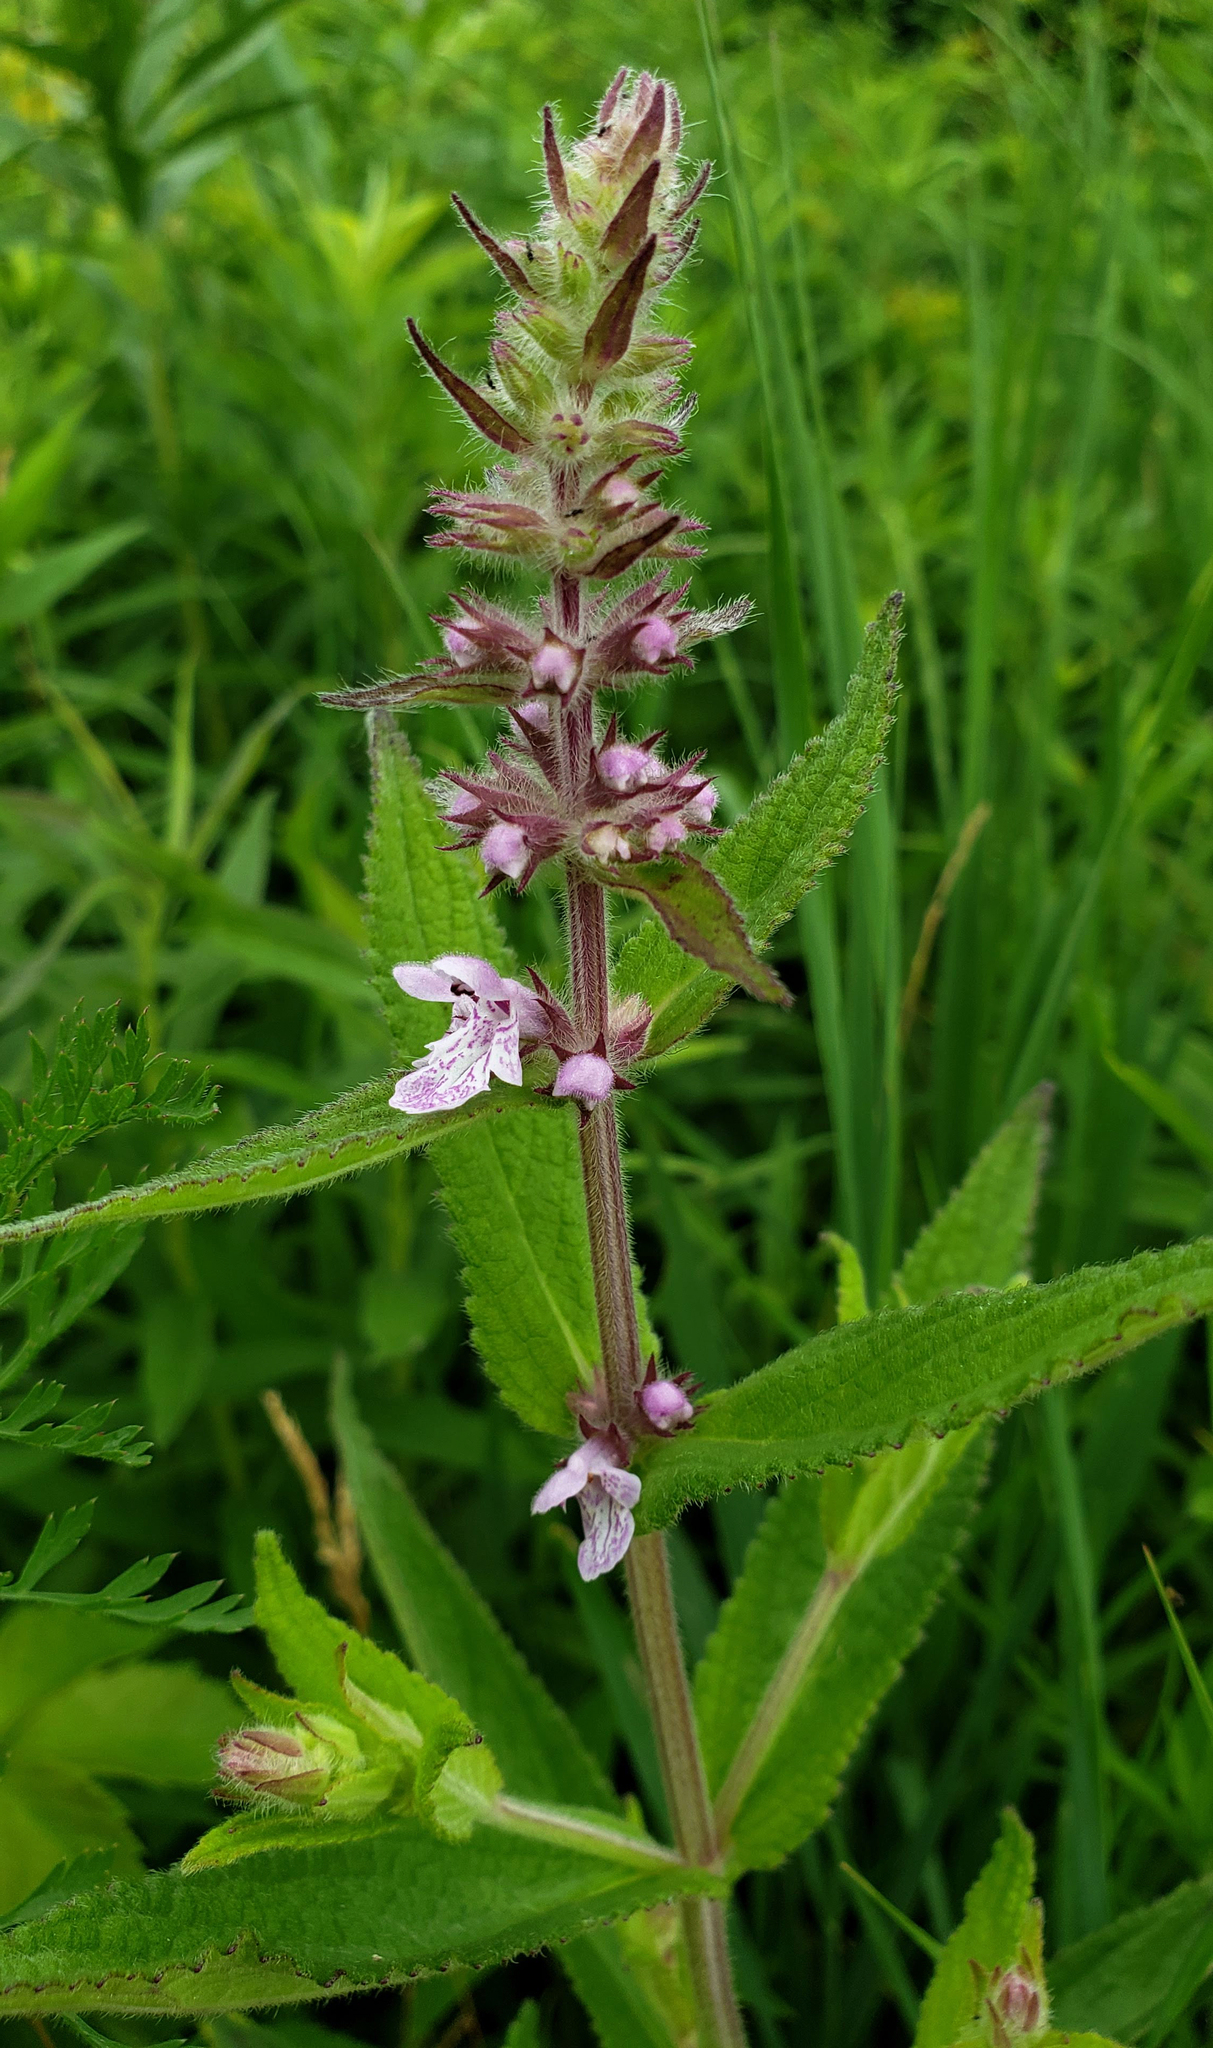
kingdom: Plantae
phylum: Tracheophyta
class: Magnoliopsida
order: Lamiales
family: Lamiaceae
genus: Stachys
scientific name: Stachys pilosa
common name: Hairy hedge-nettle
